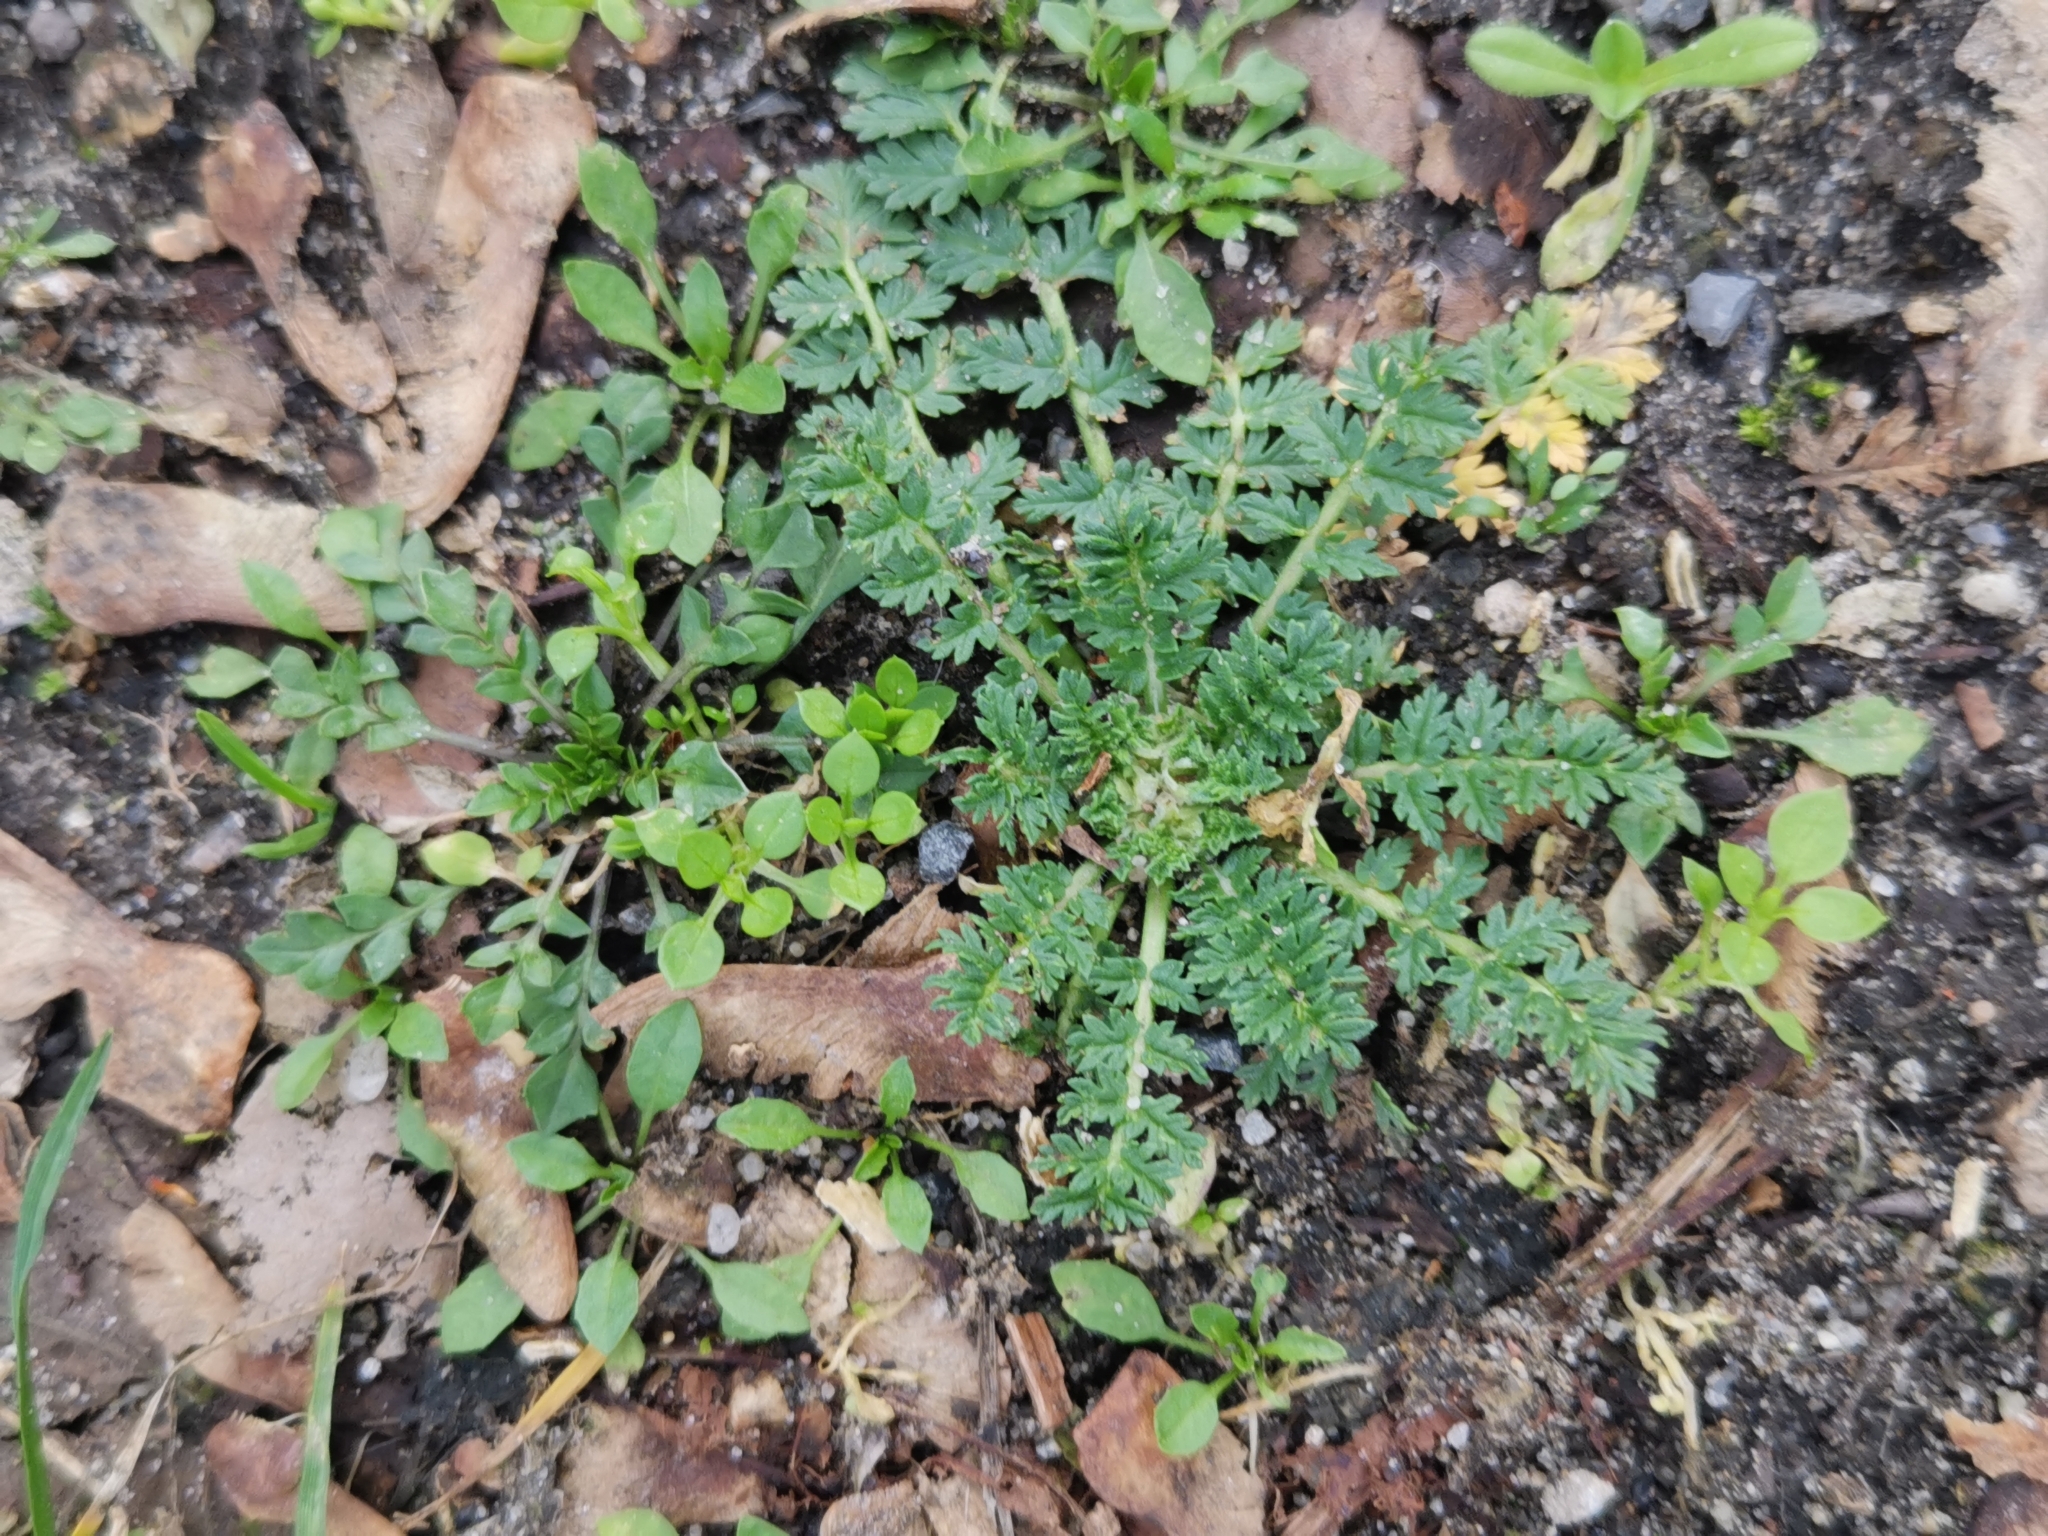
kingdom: Plantae
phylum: Tracheophyta
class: Magnoliopsida
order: Geraniales
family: Geraniaceae
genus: Erodium
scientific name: Erodium cicutarium
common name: Common stork's-bill
